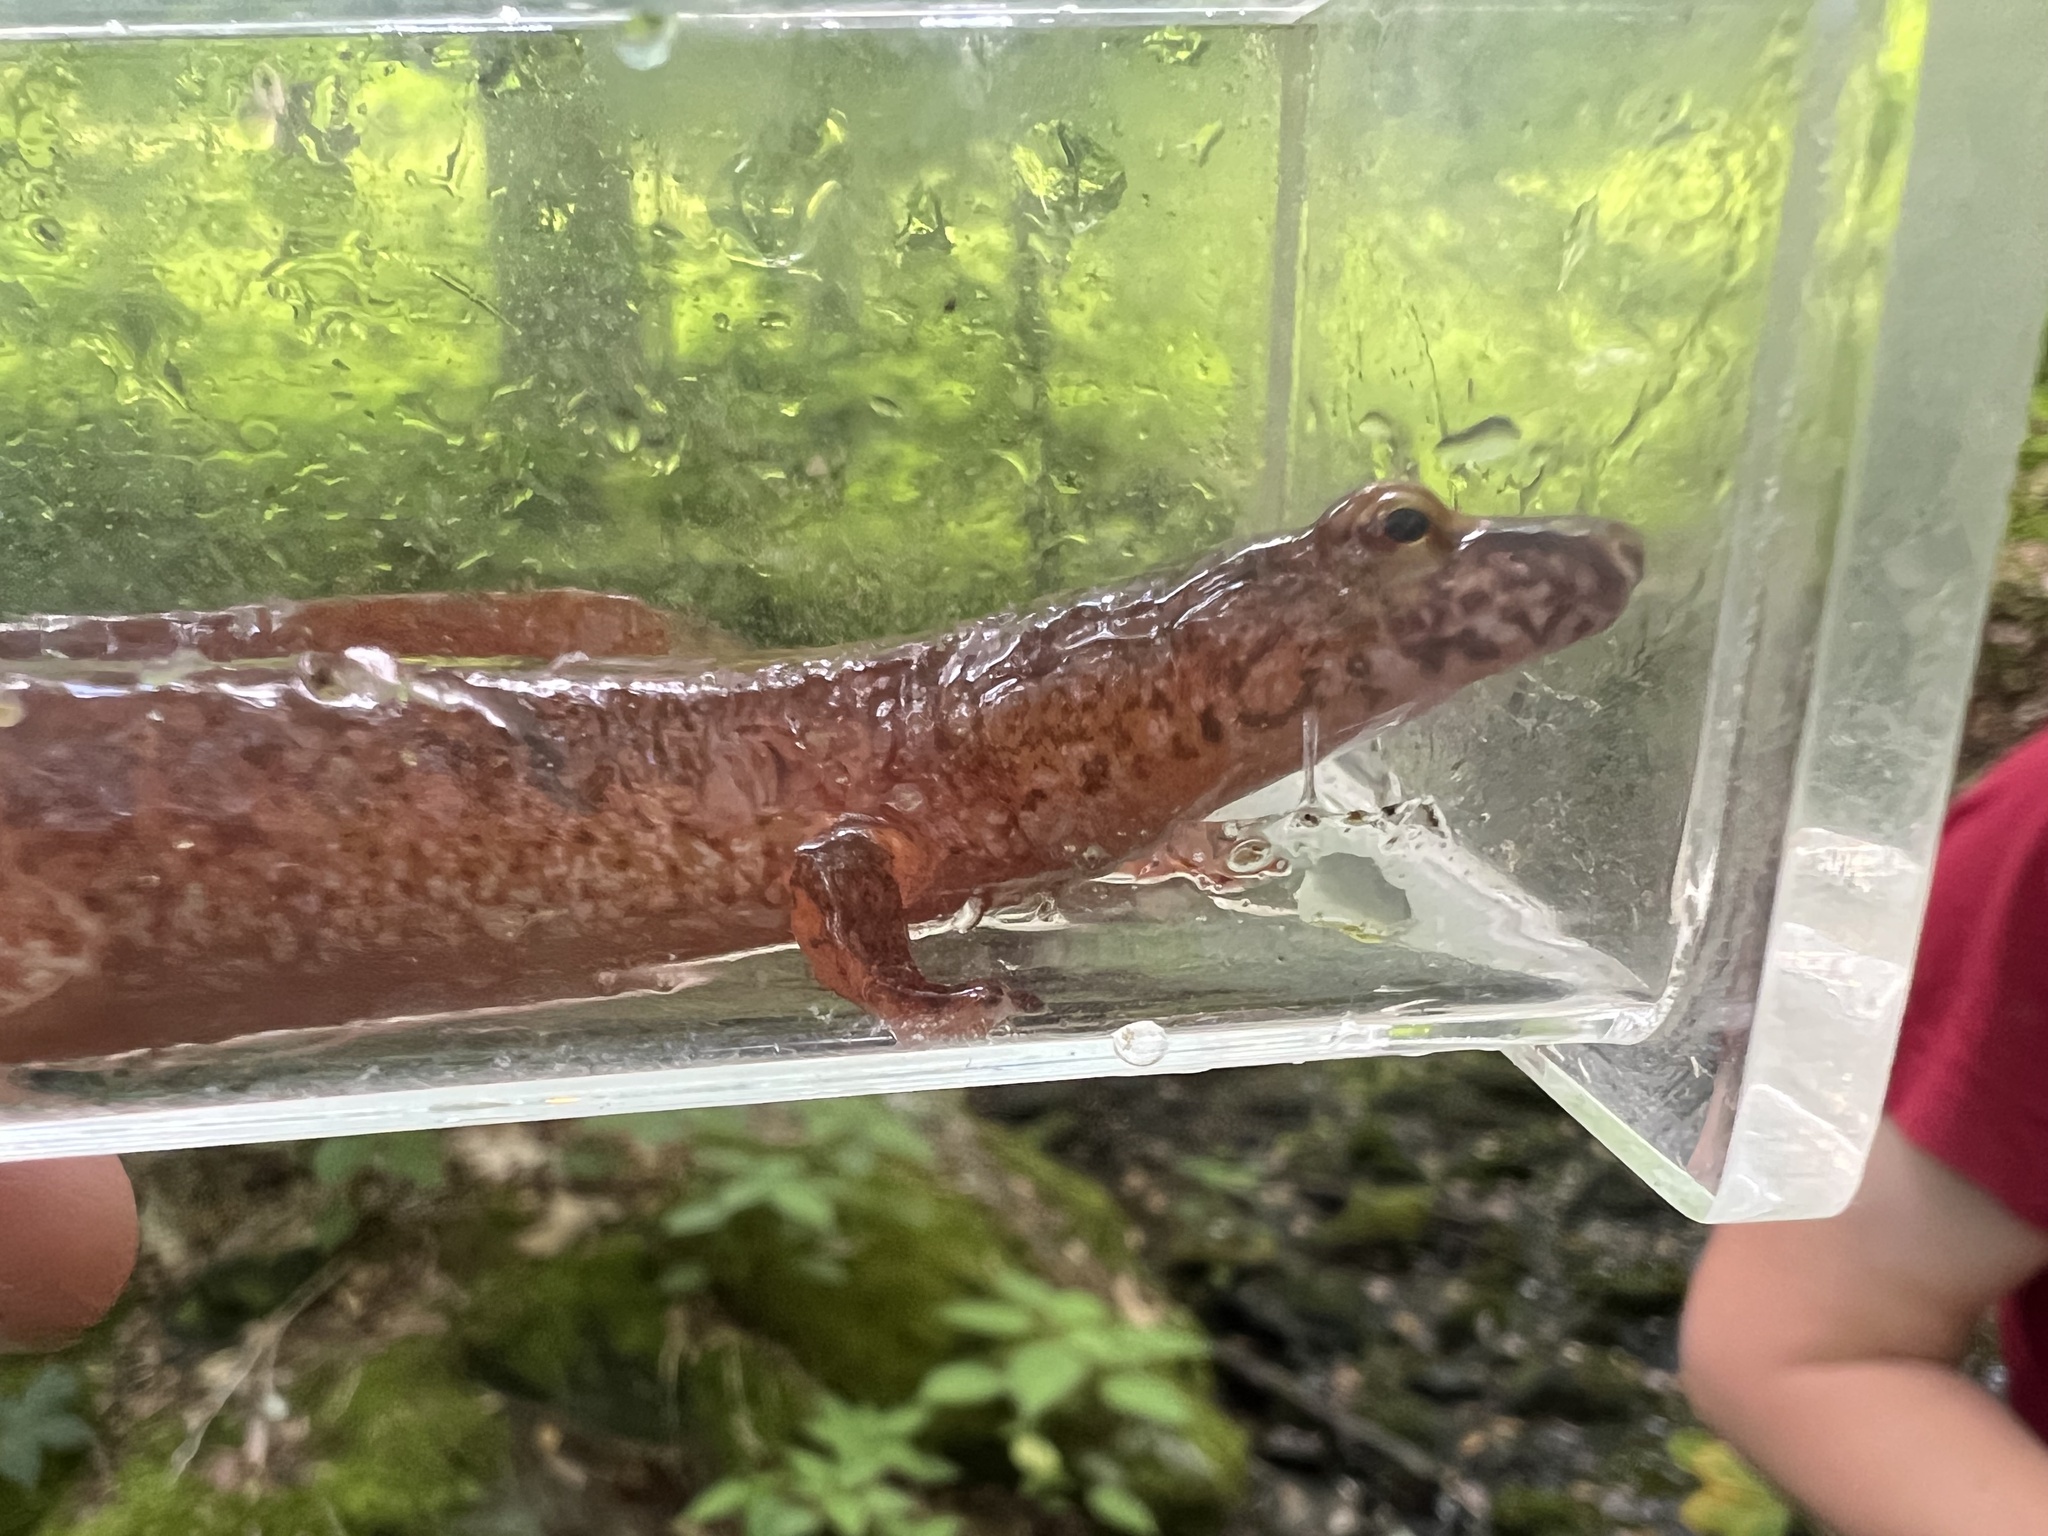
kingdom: Animalia
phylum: Chordata
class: Amphibia
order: Caudata
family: Plethodontidae
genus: Gyrinophilus
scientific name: Gyrinophilus porphyriticus
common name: Spring salamander
